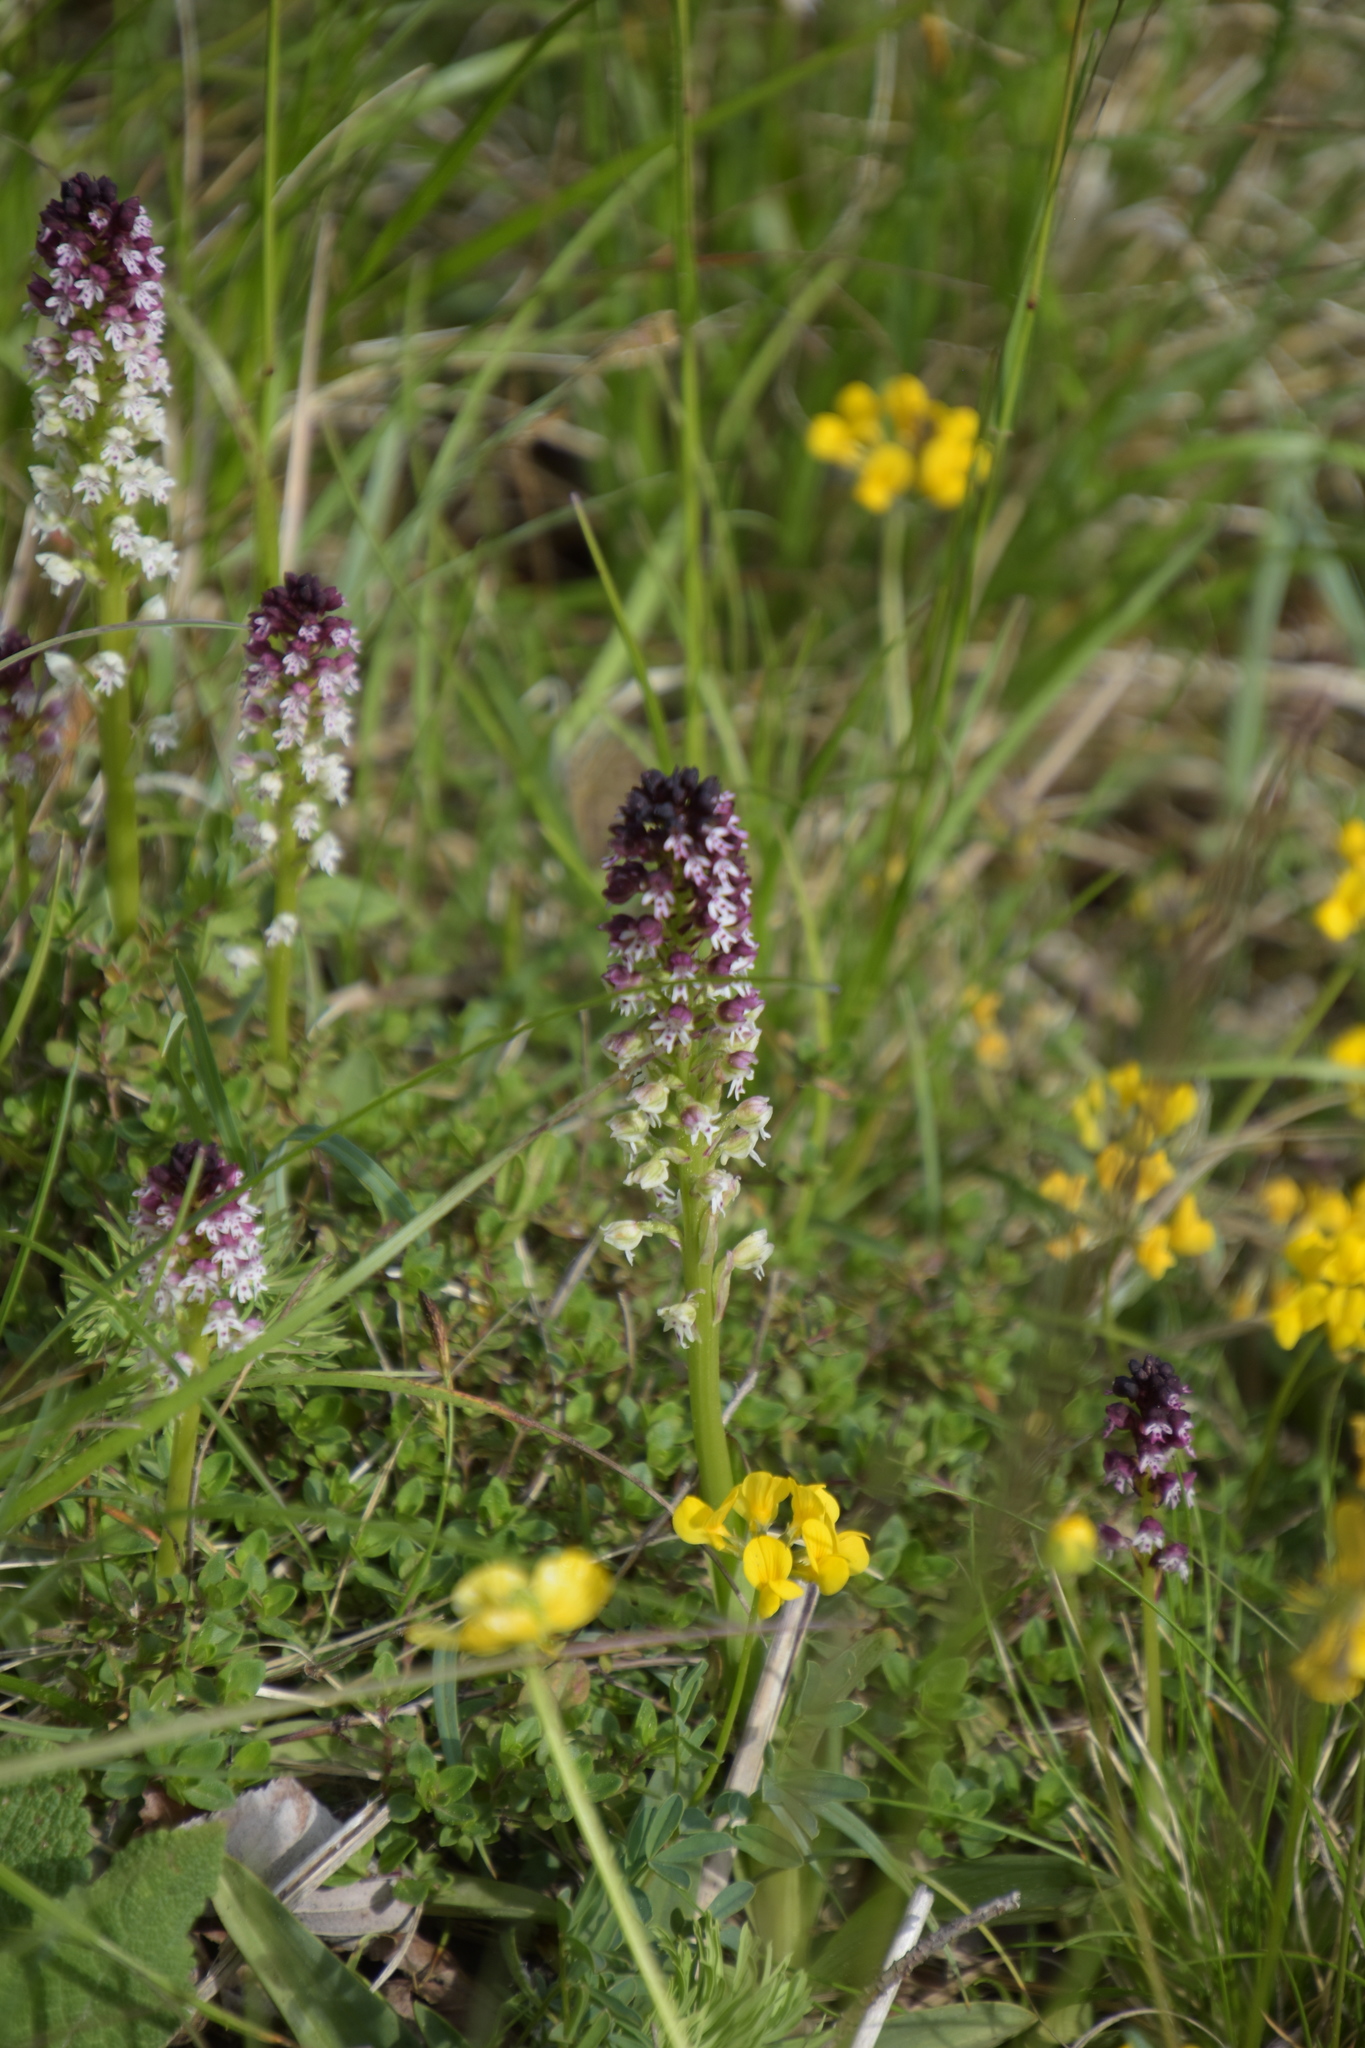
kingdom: Plantae
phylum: Tracheophyta
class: Liliopsida
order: Asparagales
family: Orchidaceae
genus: Neotinea
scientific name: Neotinea ustulata
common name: Burnt orchid
